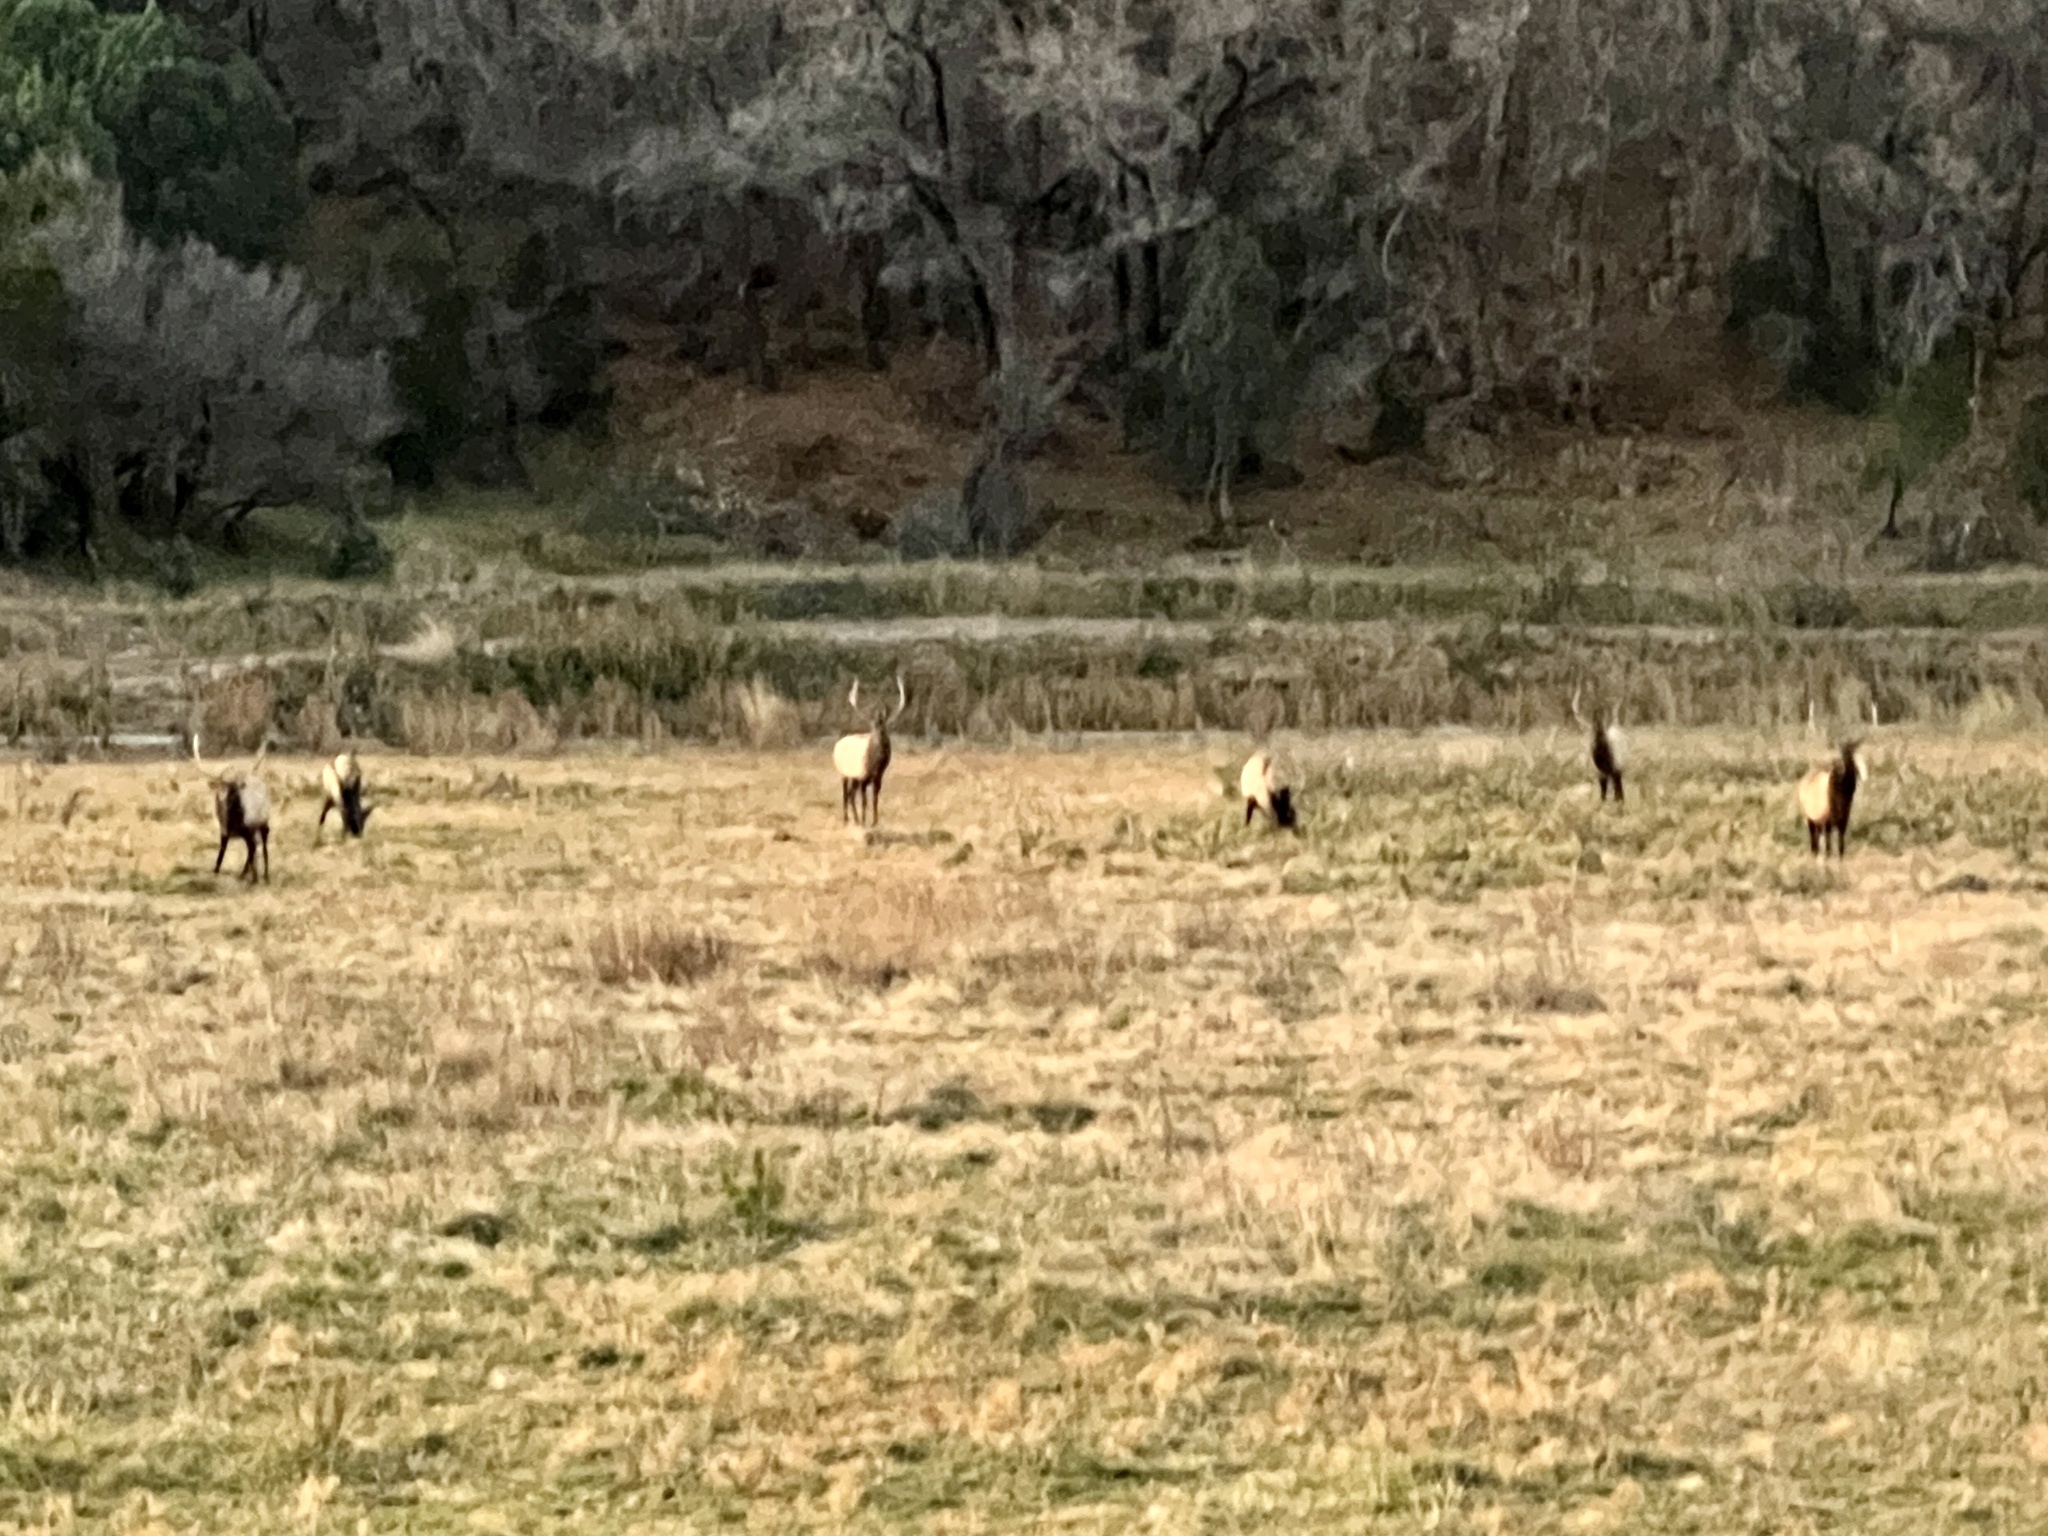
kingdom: Animalia
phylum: Chordata
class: Mammalia
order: Artiodactyla
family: Cervidae
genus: Cervus
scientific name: Cervus elaphus
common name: Red deer
